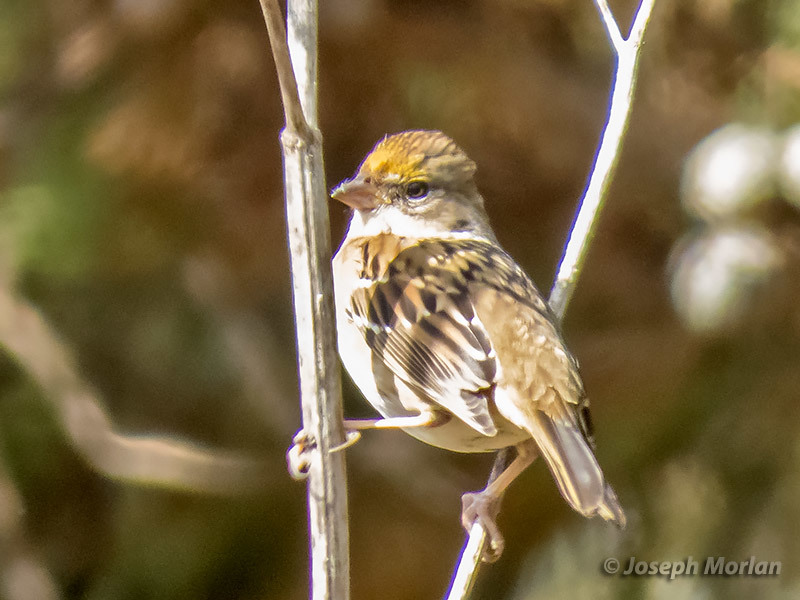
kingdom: Animalia
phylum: Chordata
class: Aves
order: Passeriformes
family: Passerellidae
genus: Zonotrichia
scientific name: Zonotrichia atricapilla
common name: Golden-crowned sparrow
